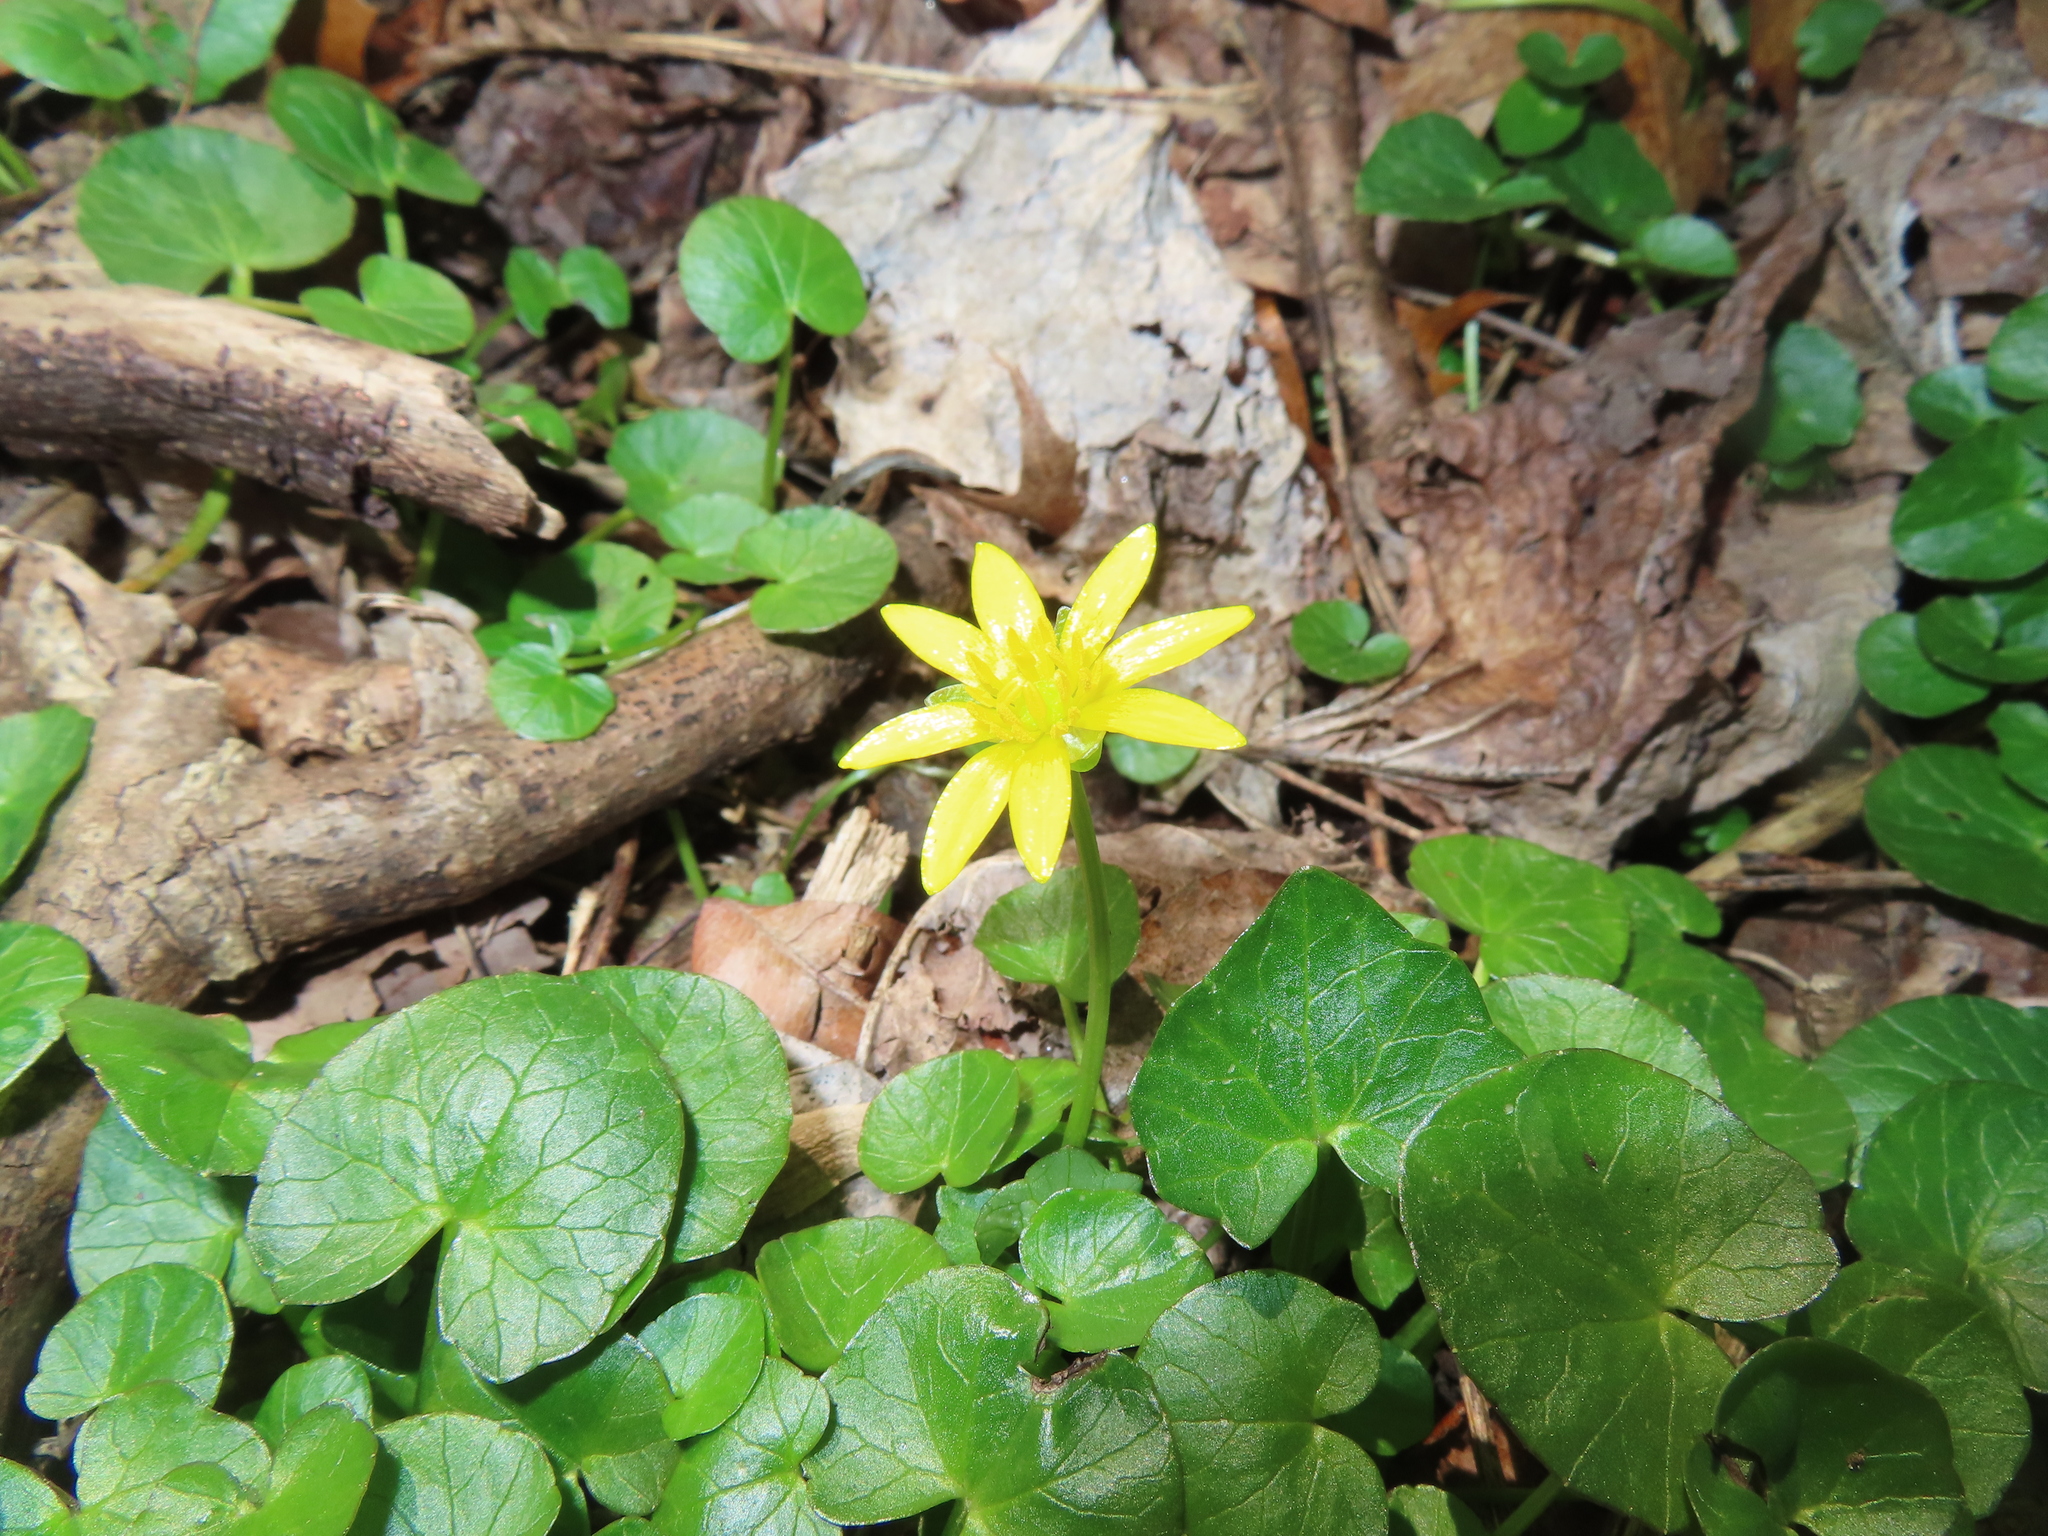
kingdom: Plantae
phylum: Tracheophyta
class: Magnoliopsida
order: Ranunculales
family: Ranunculaceae
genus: Ficaria
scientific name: Ficaria verna
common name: Lesser celandine
